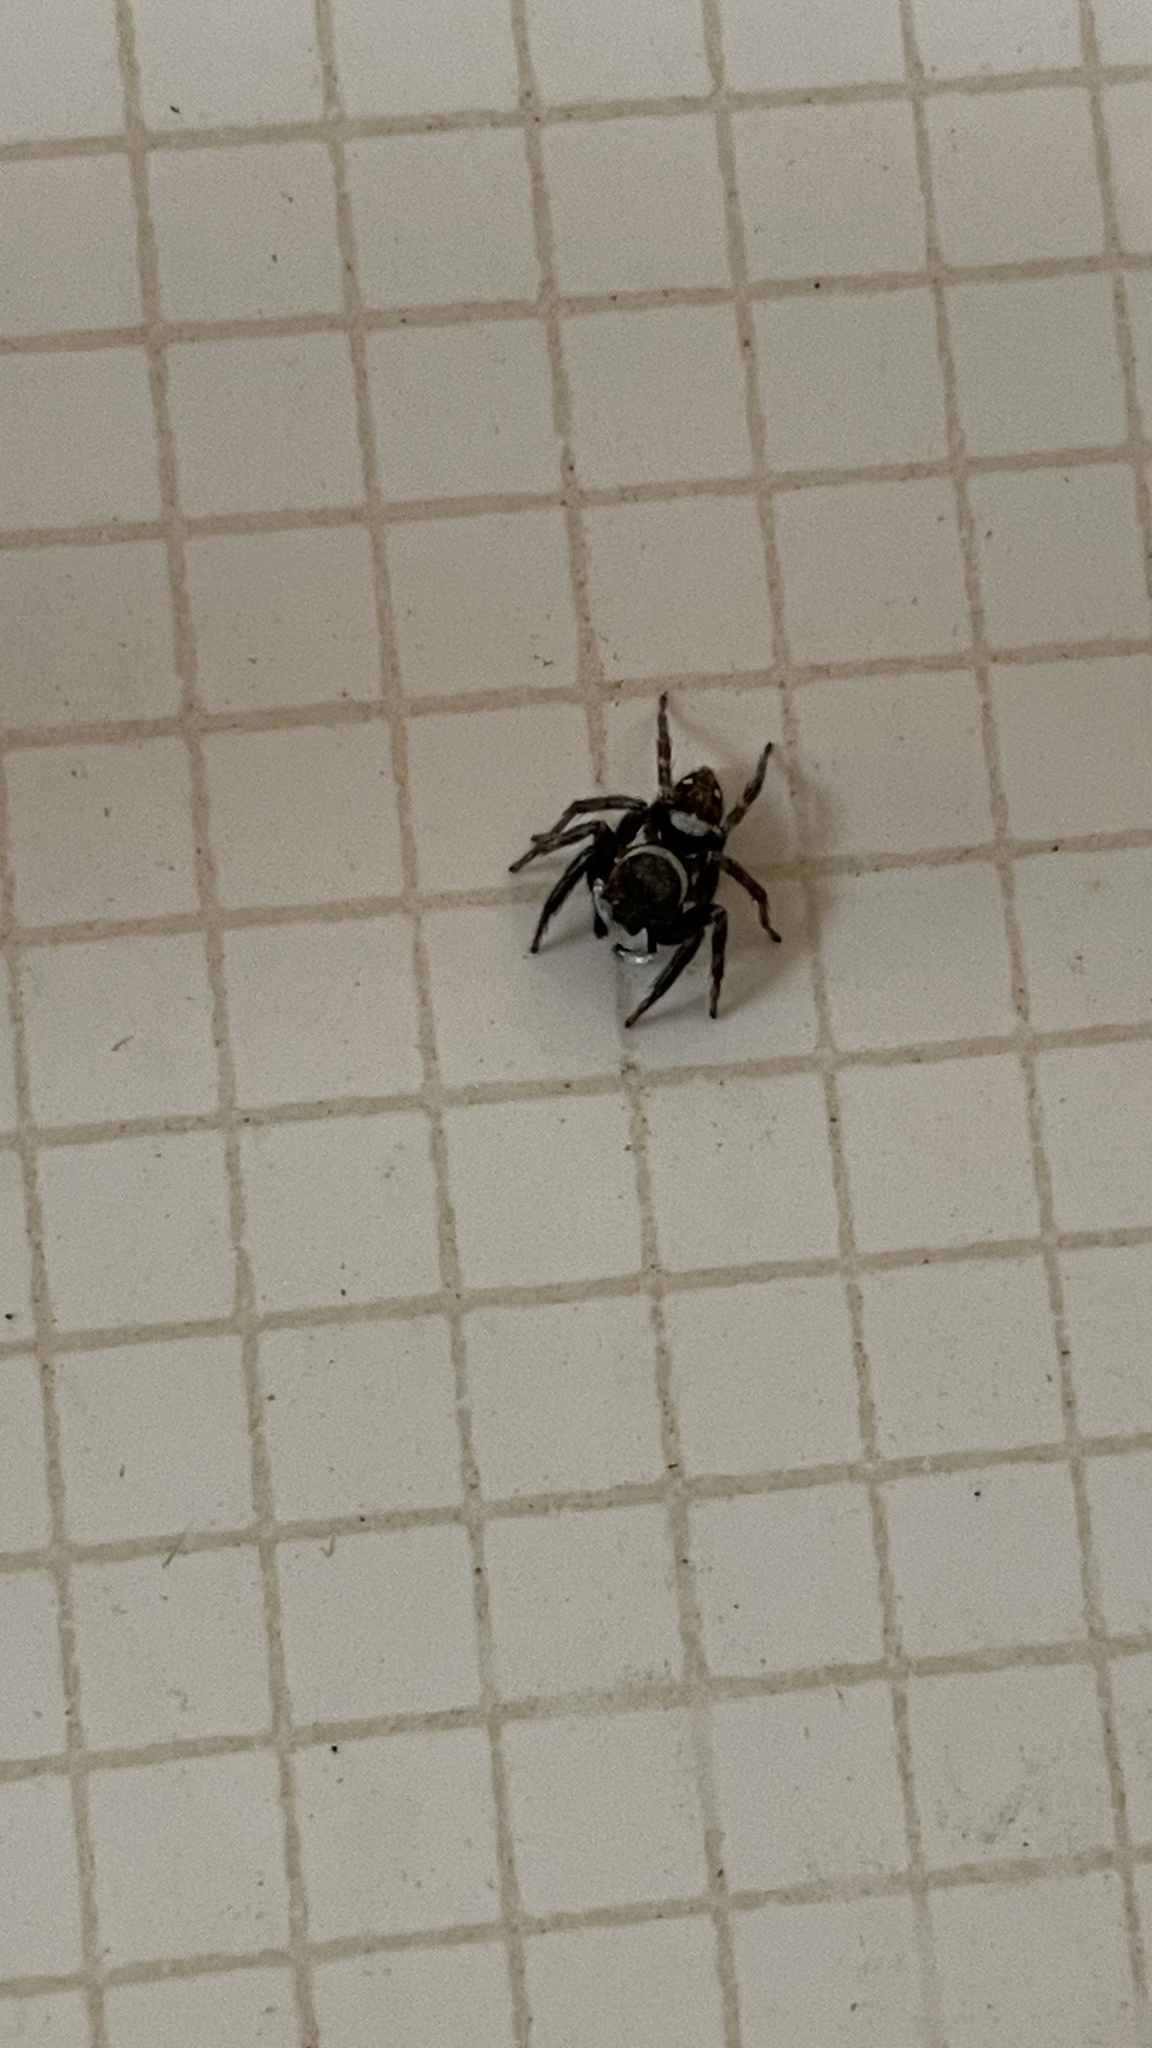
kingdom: Animalia
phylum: Arthropoda
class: Arachnida
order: Araneae
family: Salticidae
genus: Hasarius
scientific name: Hasarius adansoni
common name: Jumping spider
